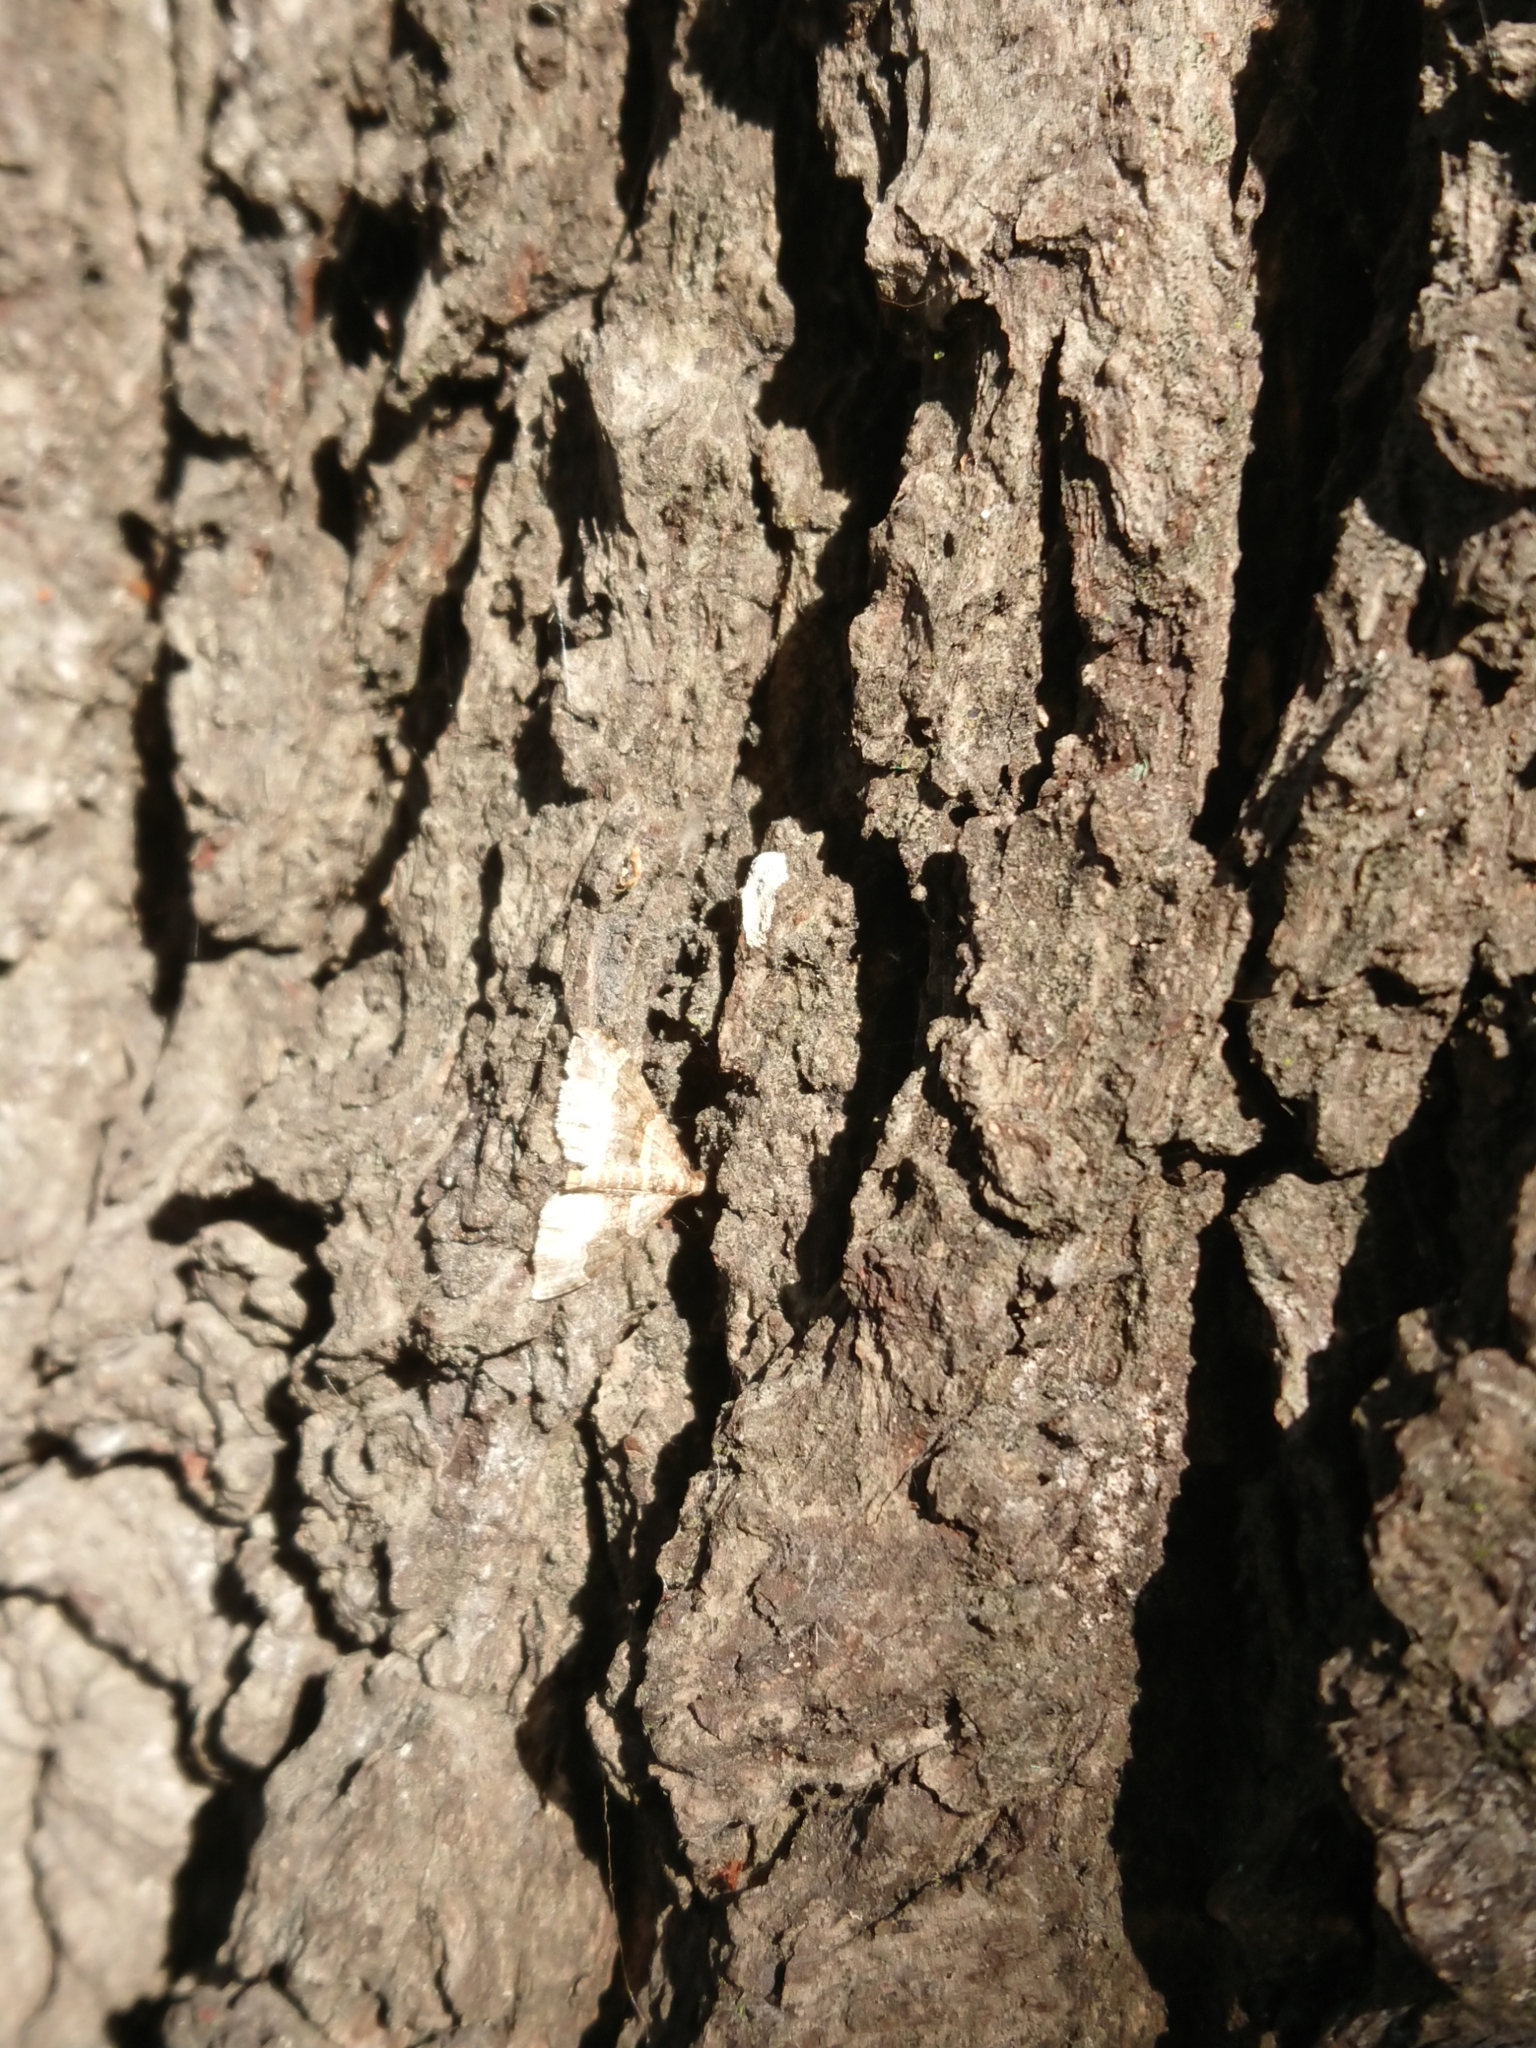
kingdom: Animalia
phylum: Arthropoda
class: Insecta
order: Lepidoptera
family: Geometridae
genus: Epyaxa
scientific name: Epyaxa lucidata
